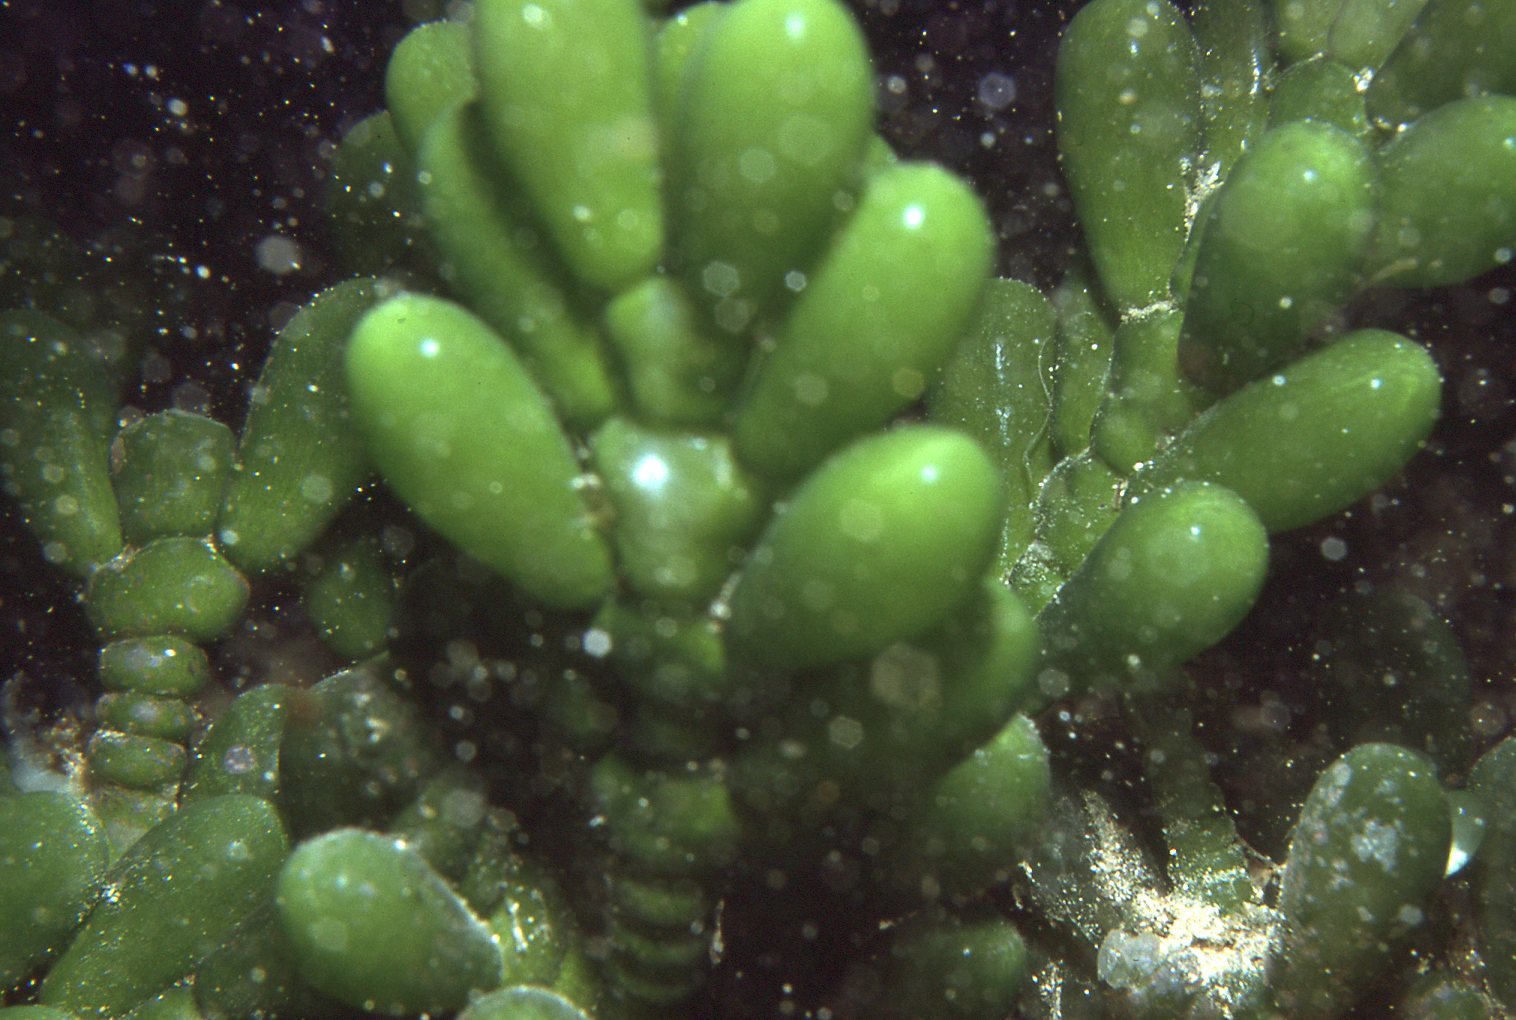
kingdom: Plantae
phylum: Chlorophyta
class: Ulvophyceae
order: Bryopsidales
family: Caulerpaceae
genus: Caulerpa
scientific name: Caulerpa cactoides
